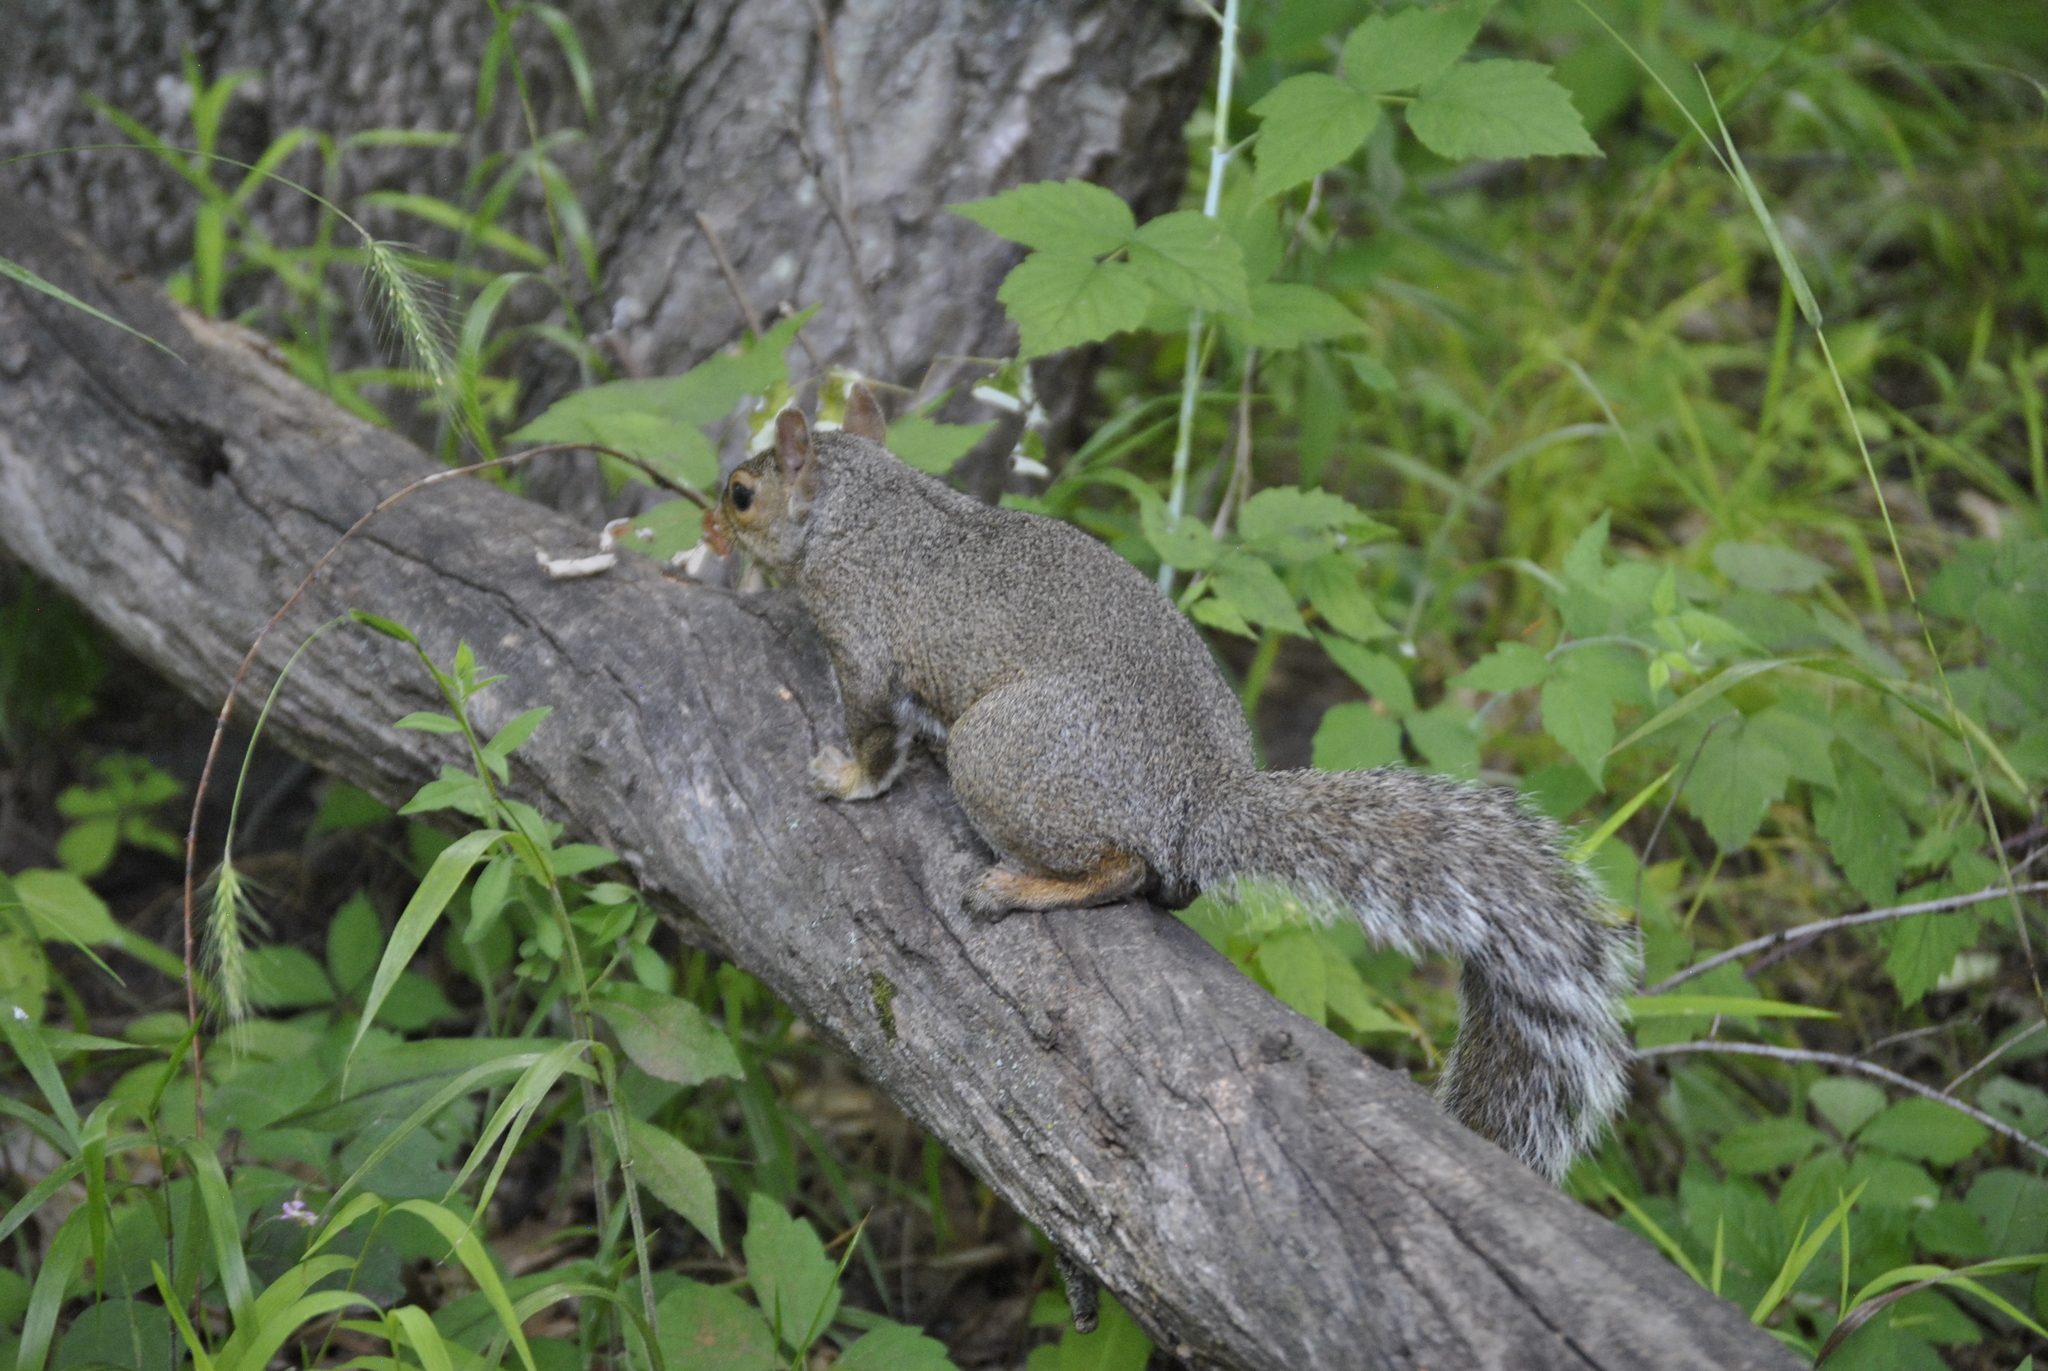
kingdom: Animalia
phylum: Chordata
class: Mammalia
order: Rodentia
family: Sciuridae
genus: Sciurus
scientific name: Sciurus carolinensis
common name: Eastern gray squirrel
